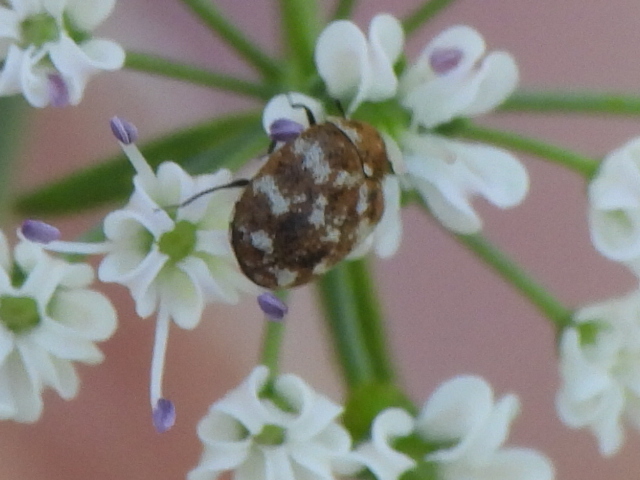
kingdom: Animalia
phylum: Arthropoda
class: Insecta
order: Coleoptera
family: Dermestidae
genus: Anthrenus
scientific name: Anthrenus verbasci
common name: Varied carpet beetle
